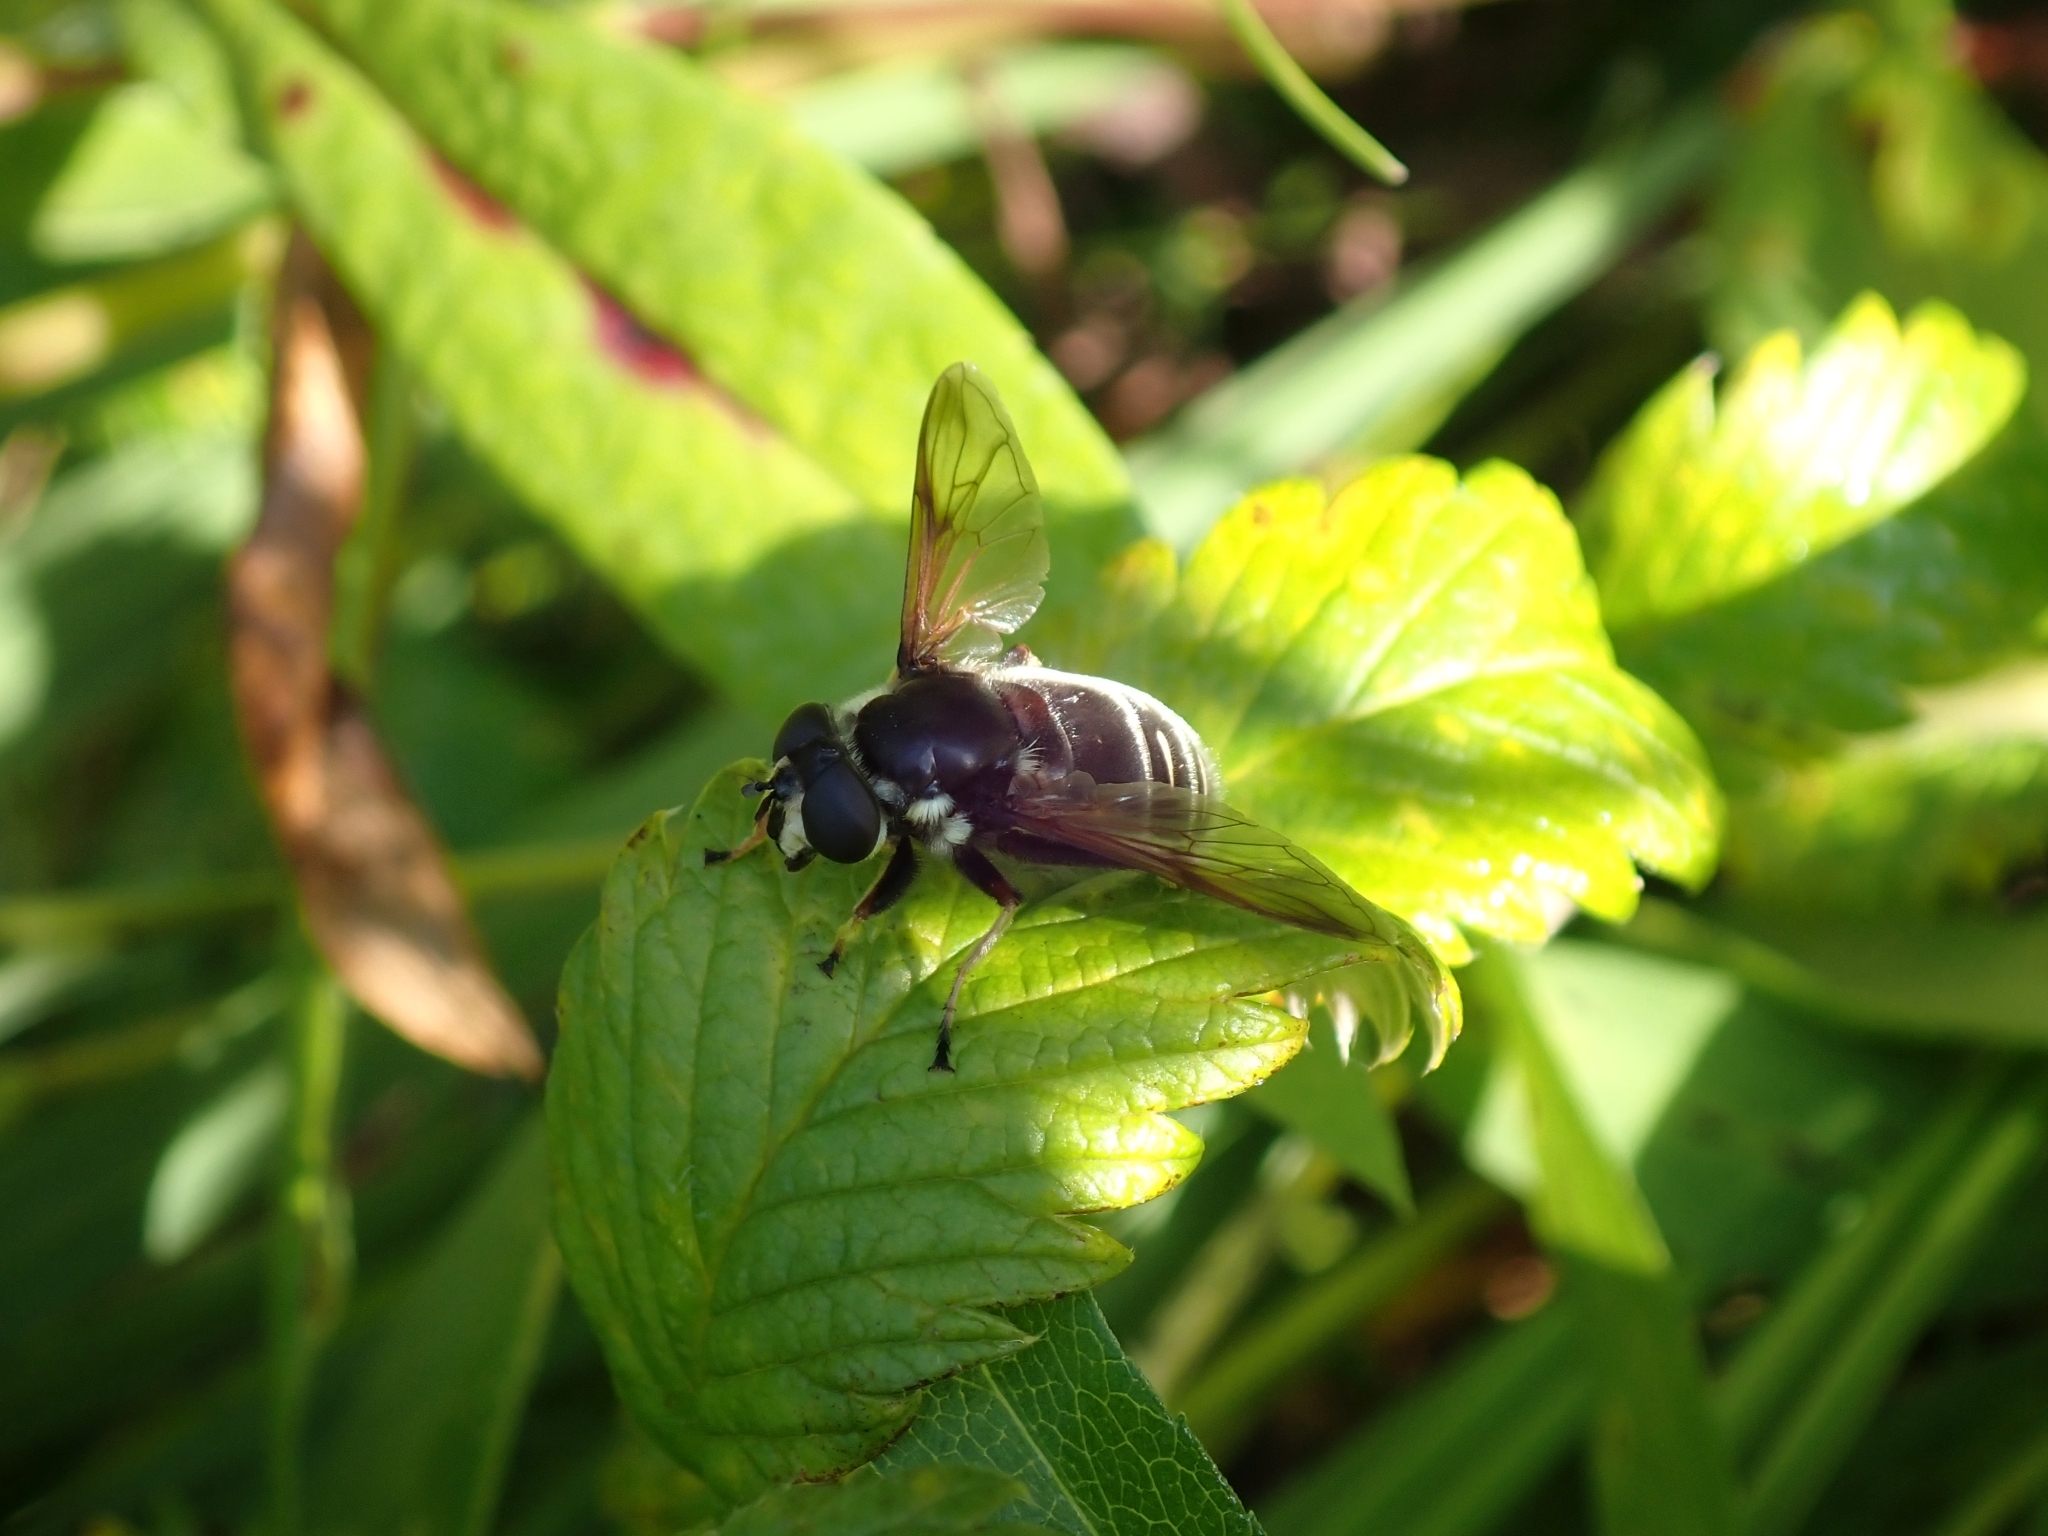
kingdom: Animalia
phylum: Arthropoda
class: Insecta
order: Diptera
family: Syrphidae
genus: Sericomyia
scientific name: Sericomyia militaris
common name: Narrow-banded pond fly
